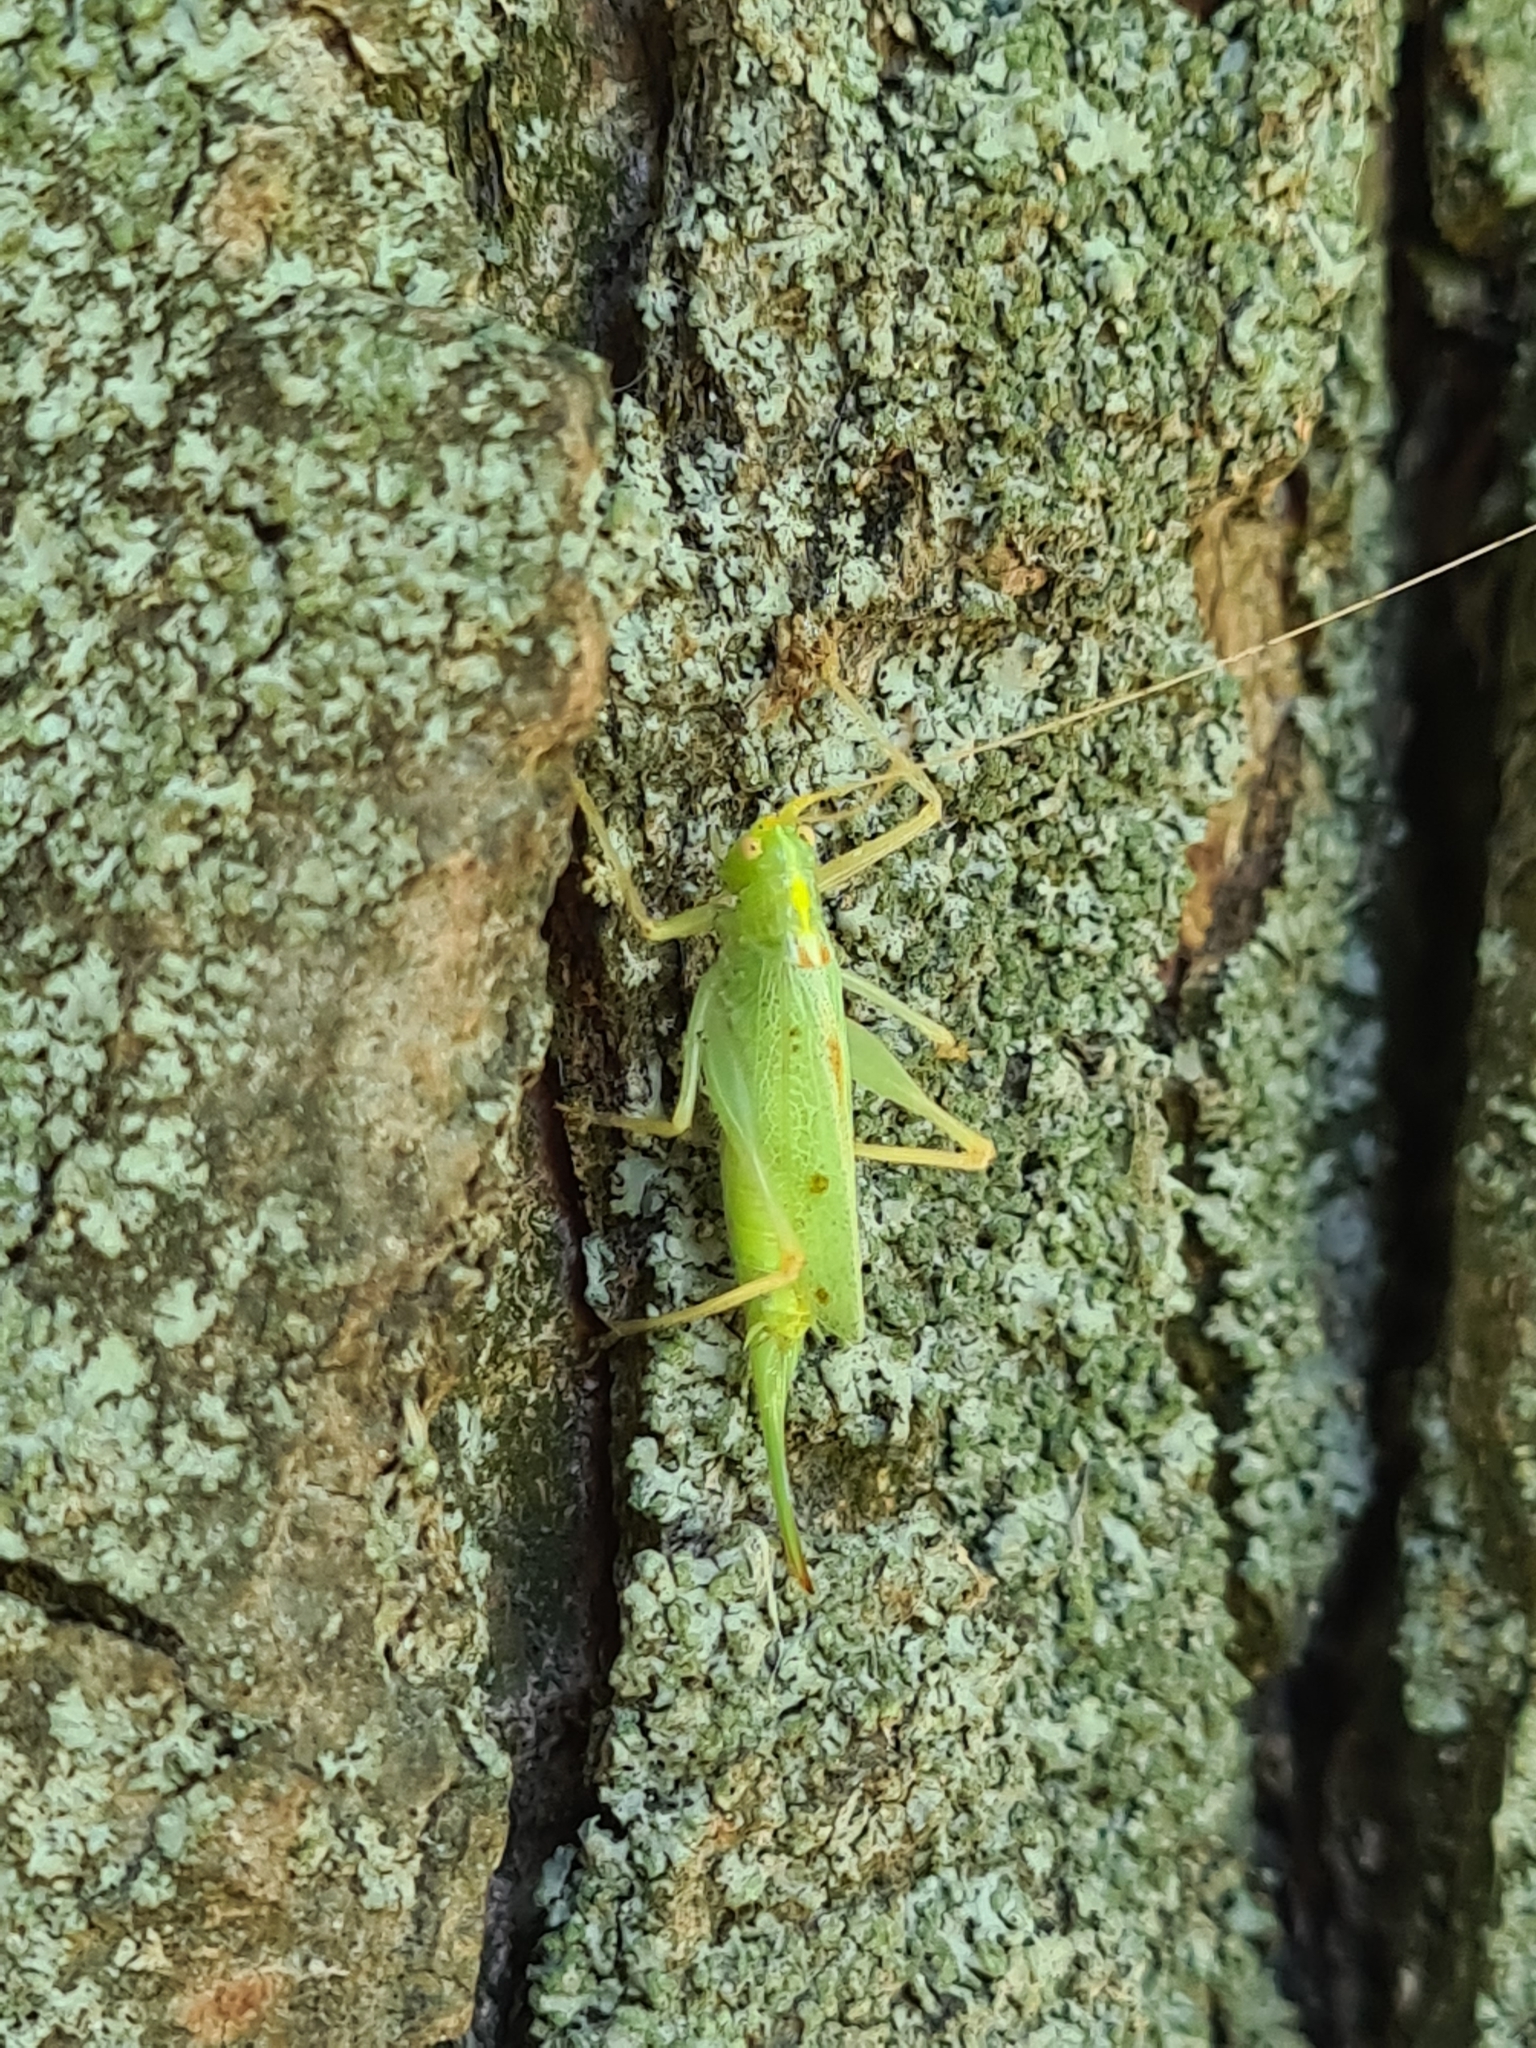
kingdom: Animalia
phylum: Arthropoda
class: Insecta
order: Orthoptera
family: Tettigoniidae
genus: Meconema
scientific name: Meconema thalassinum
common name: Oak bush-cricket
